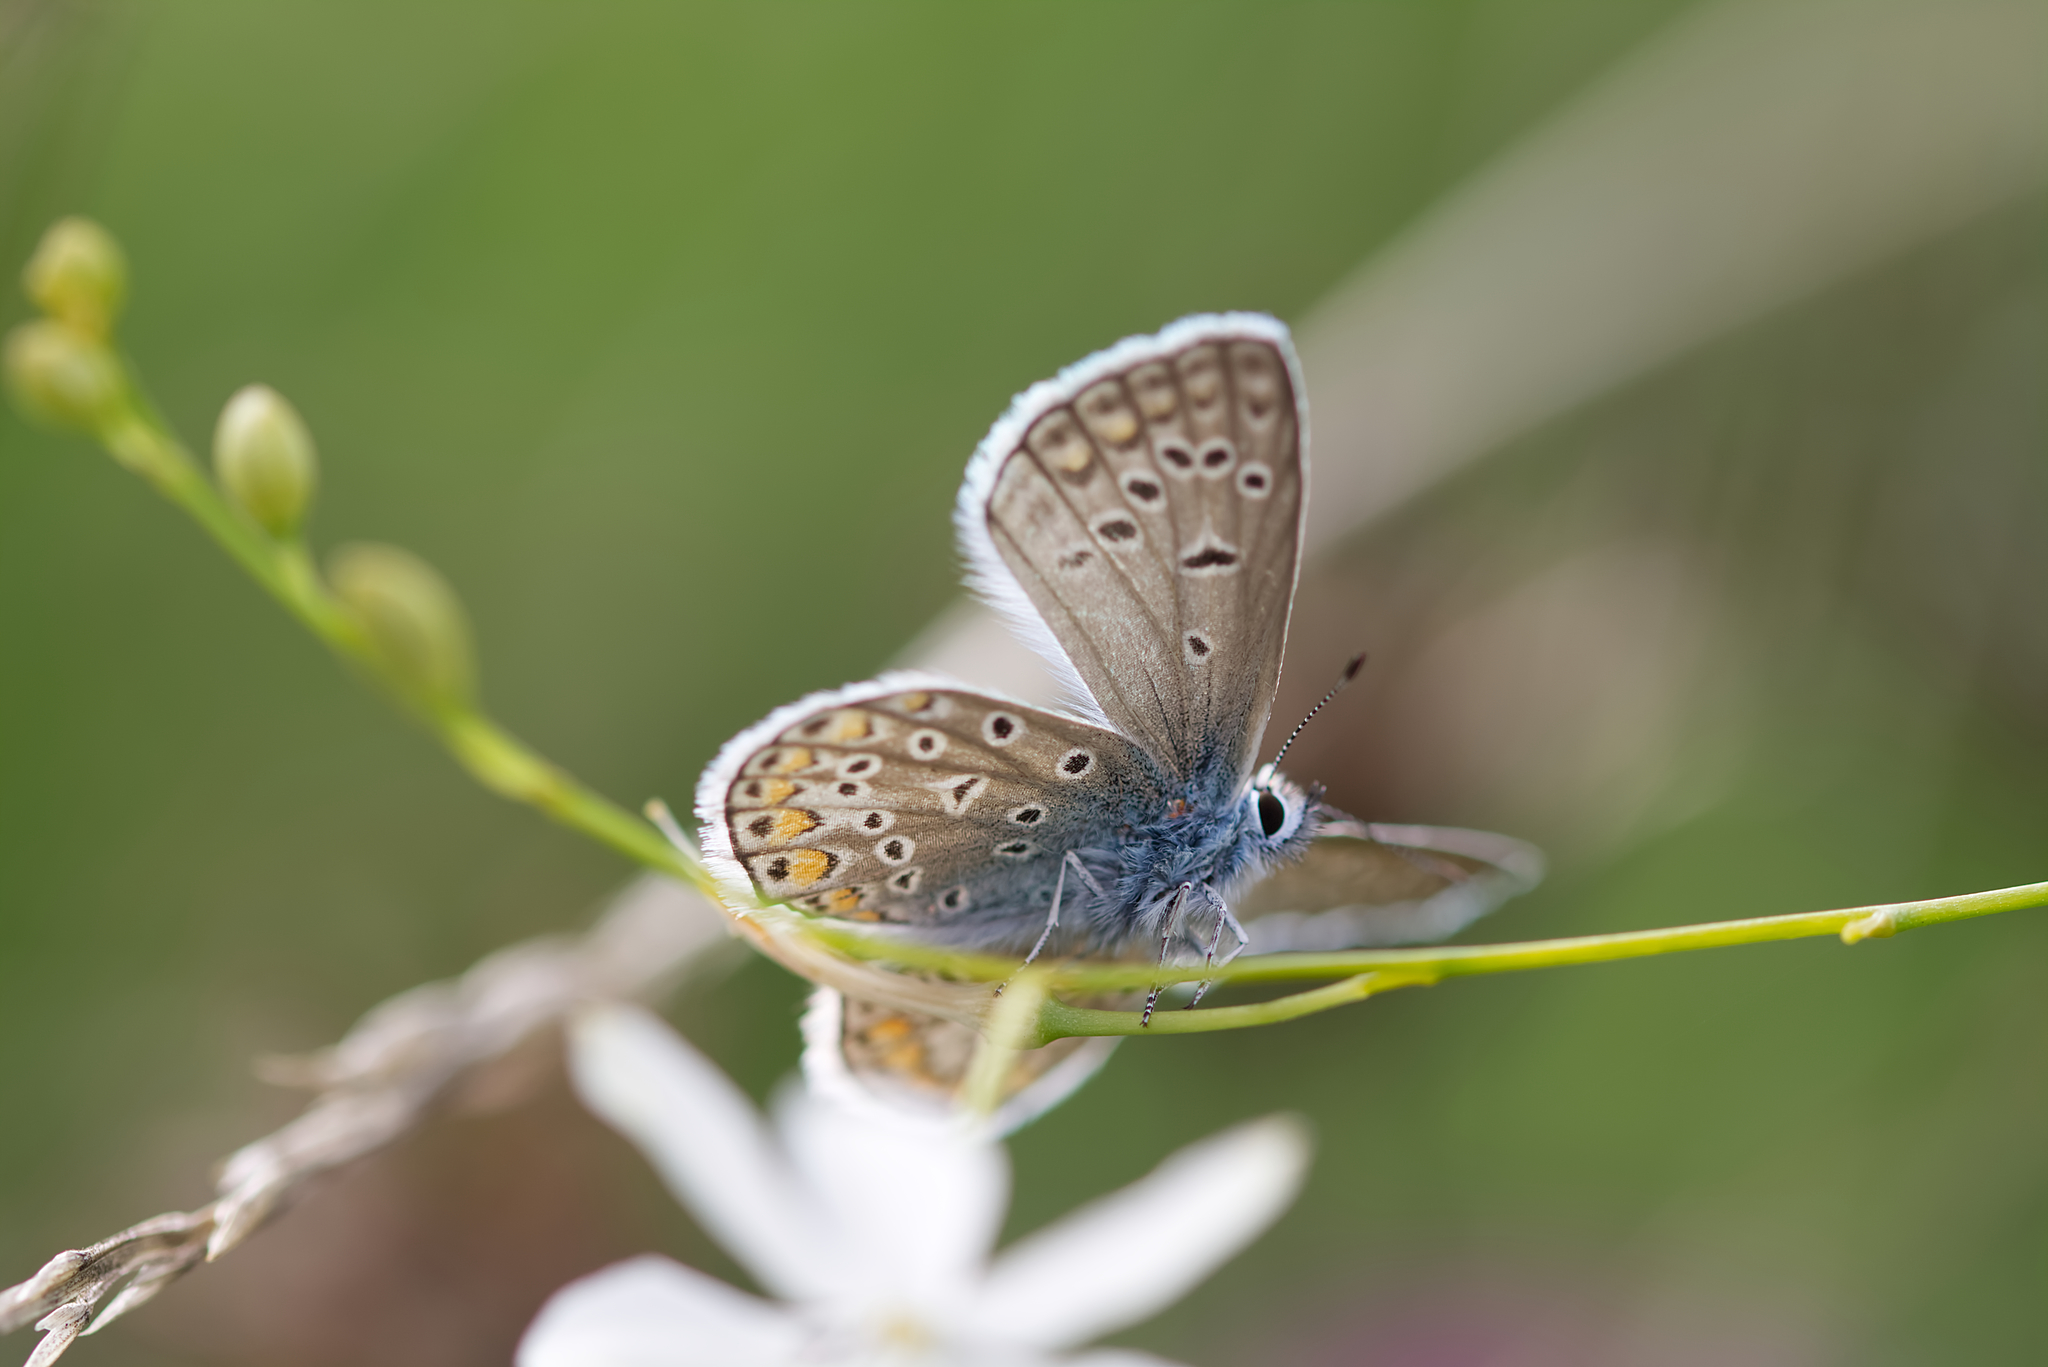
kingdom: Animalia
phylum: Arthropoda
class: Insecta
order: Lepidoptera
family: Lycaenidae
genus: Polyommatus
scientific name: Polyommatus icarus
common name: Common blue
